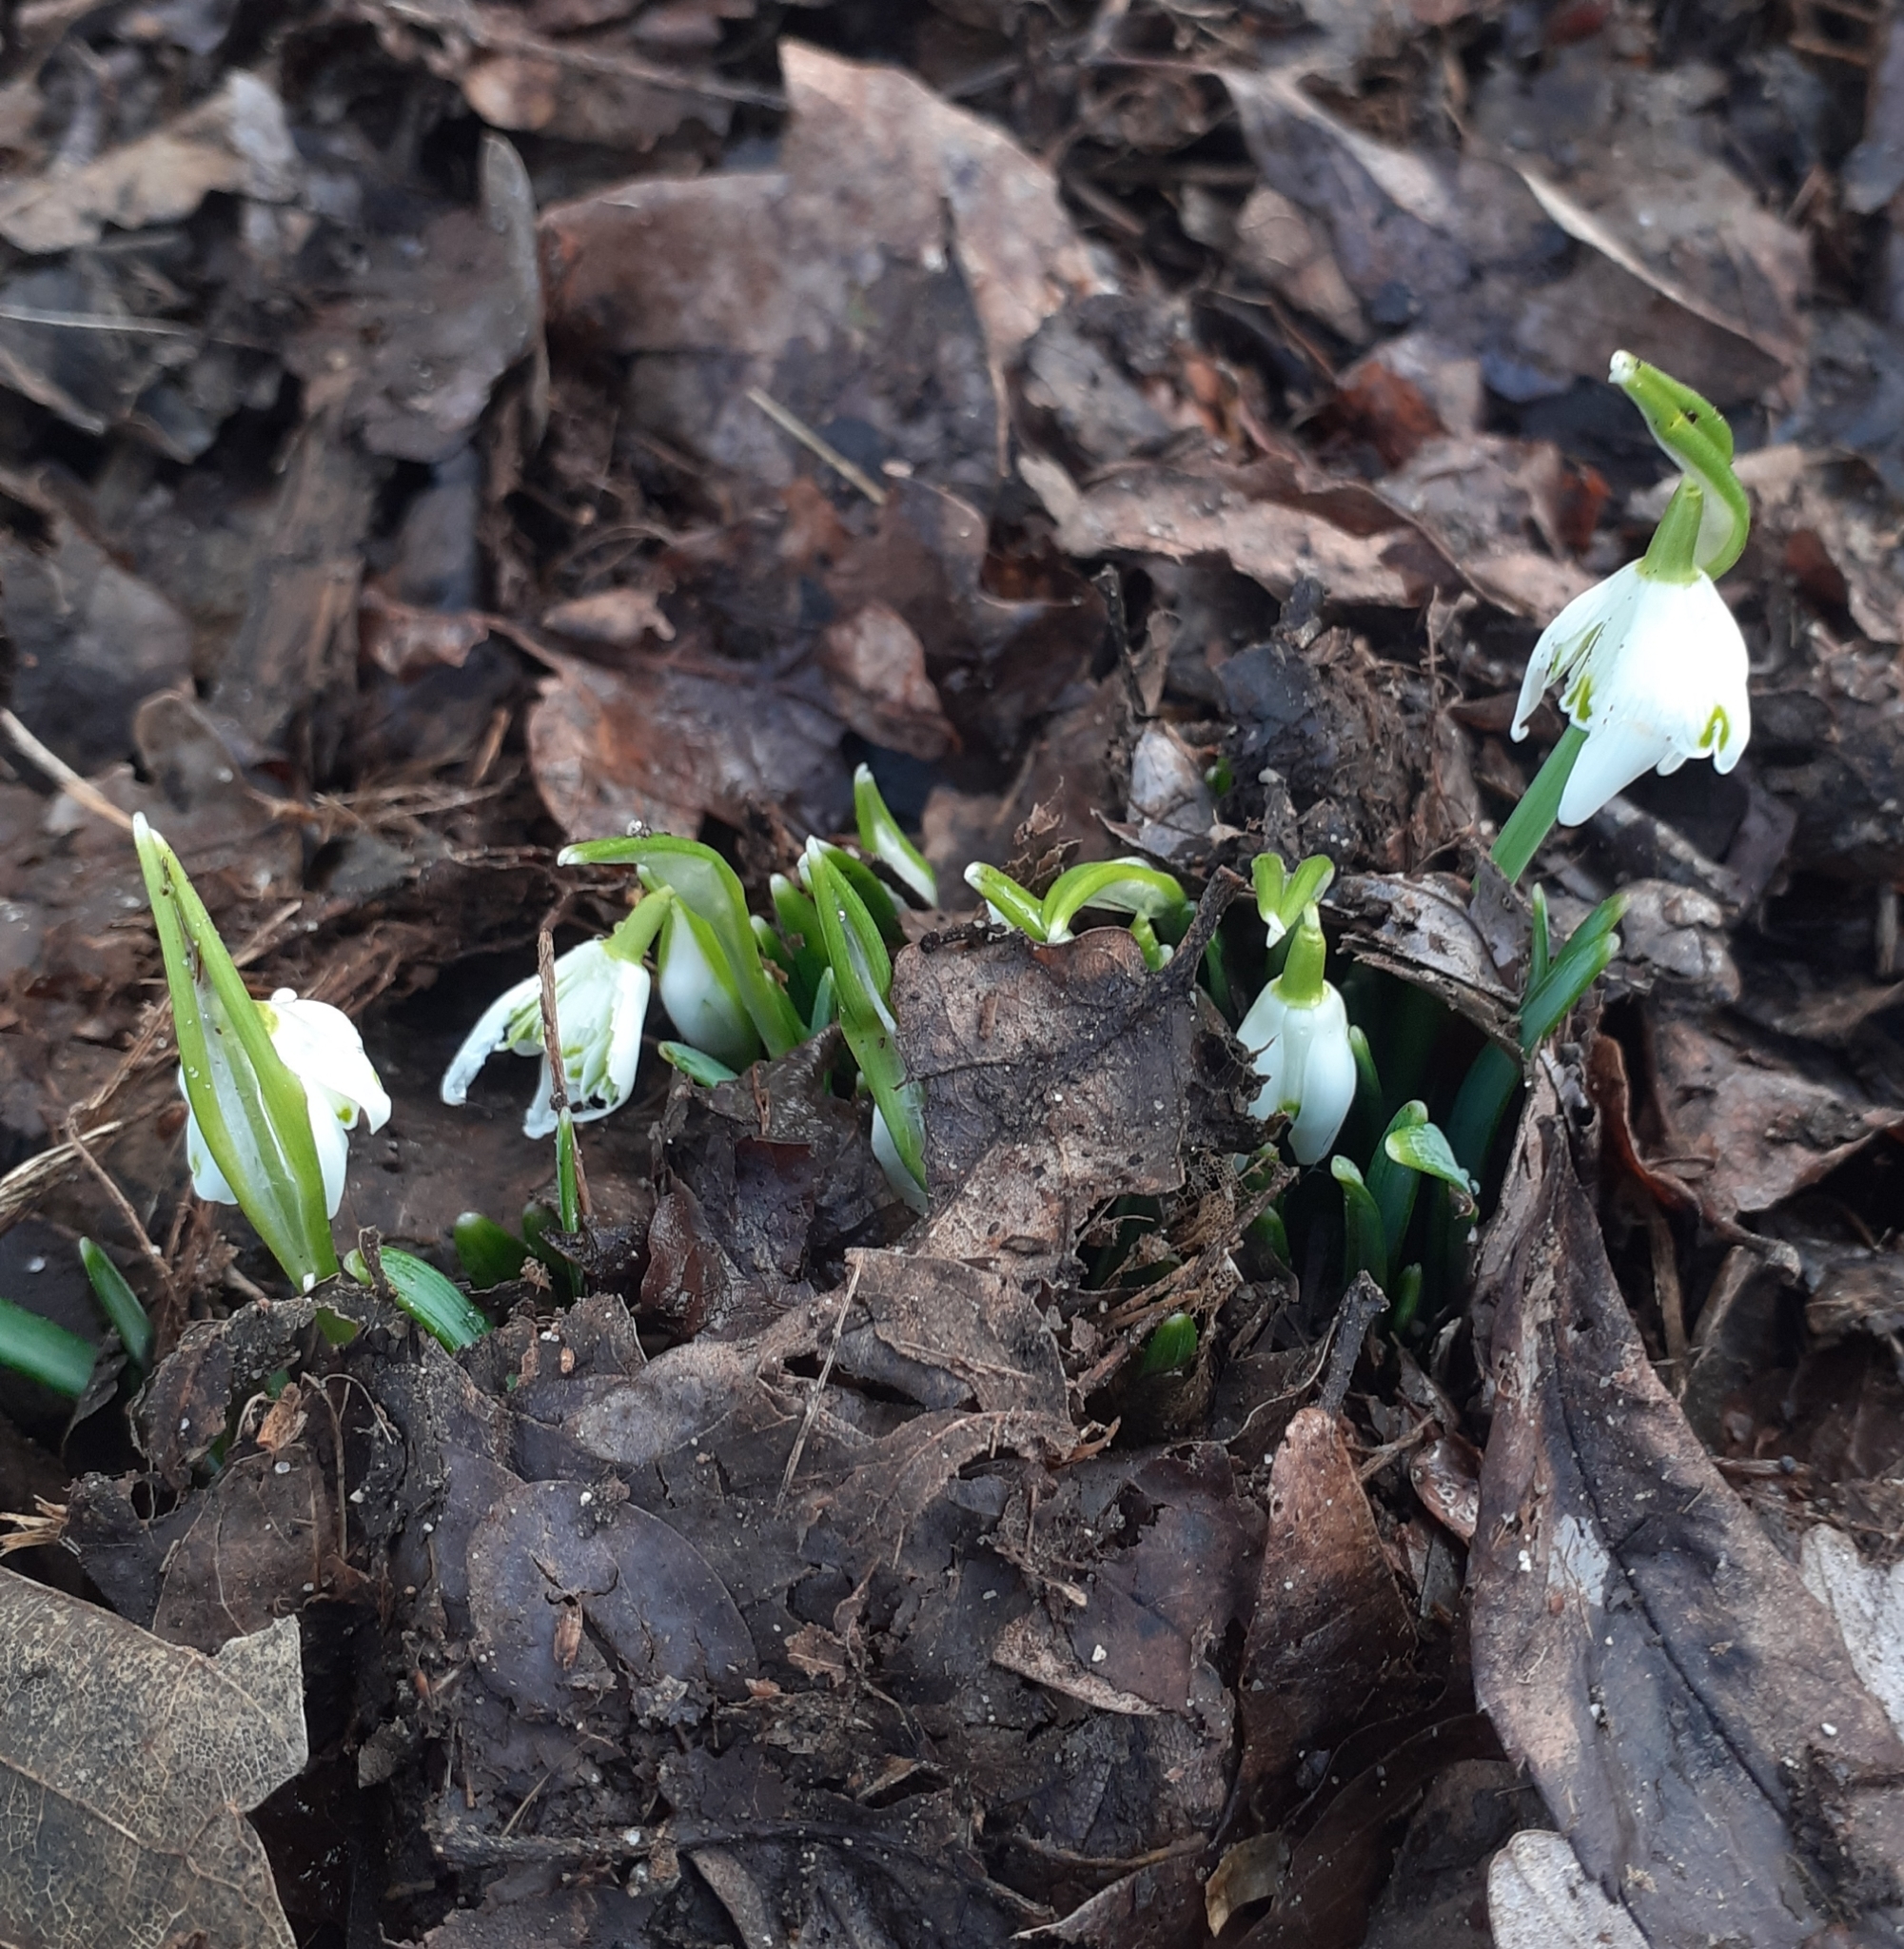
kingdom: Plantae
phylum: Tracheophyta
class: Liliopsida
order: Asparagales
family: Amaryllidaceae
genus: Galanthus
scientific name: Galanthus nivalis
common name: Snowdrop
